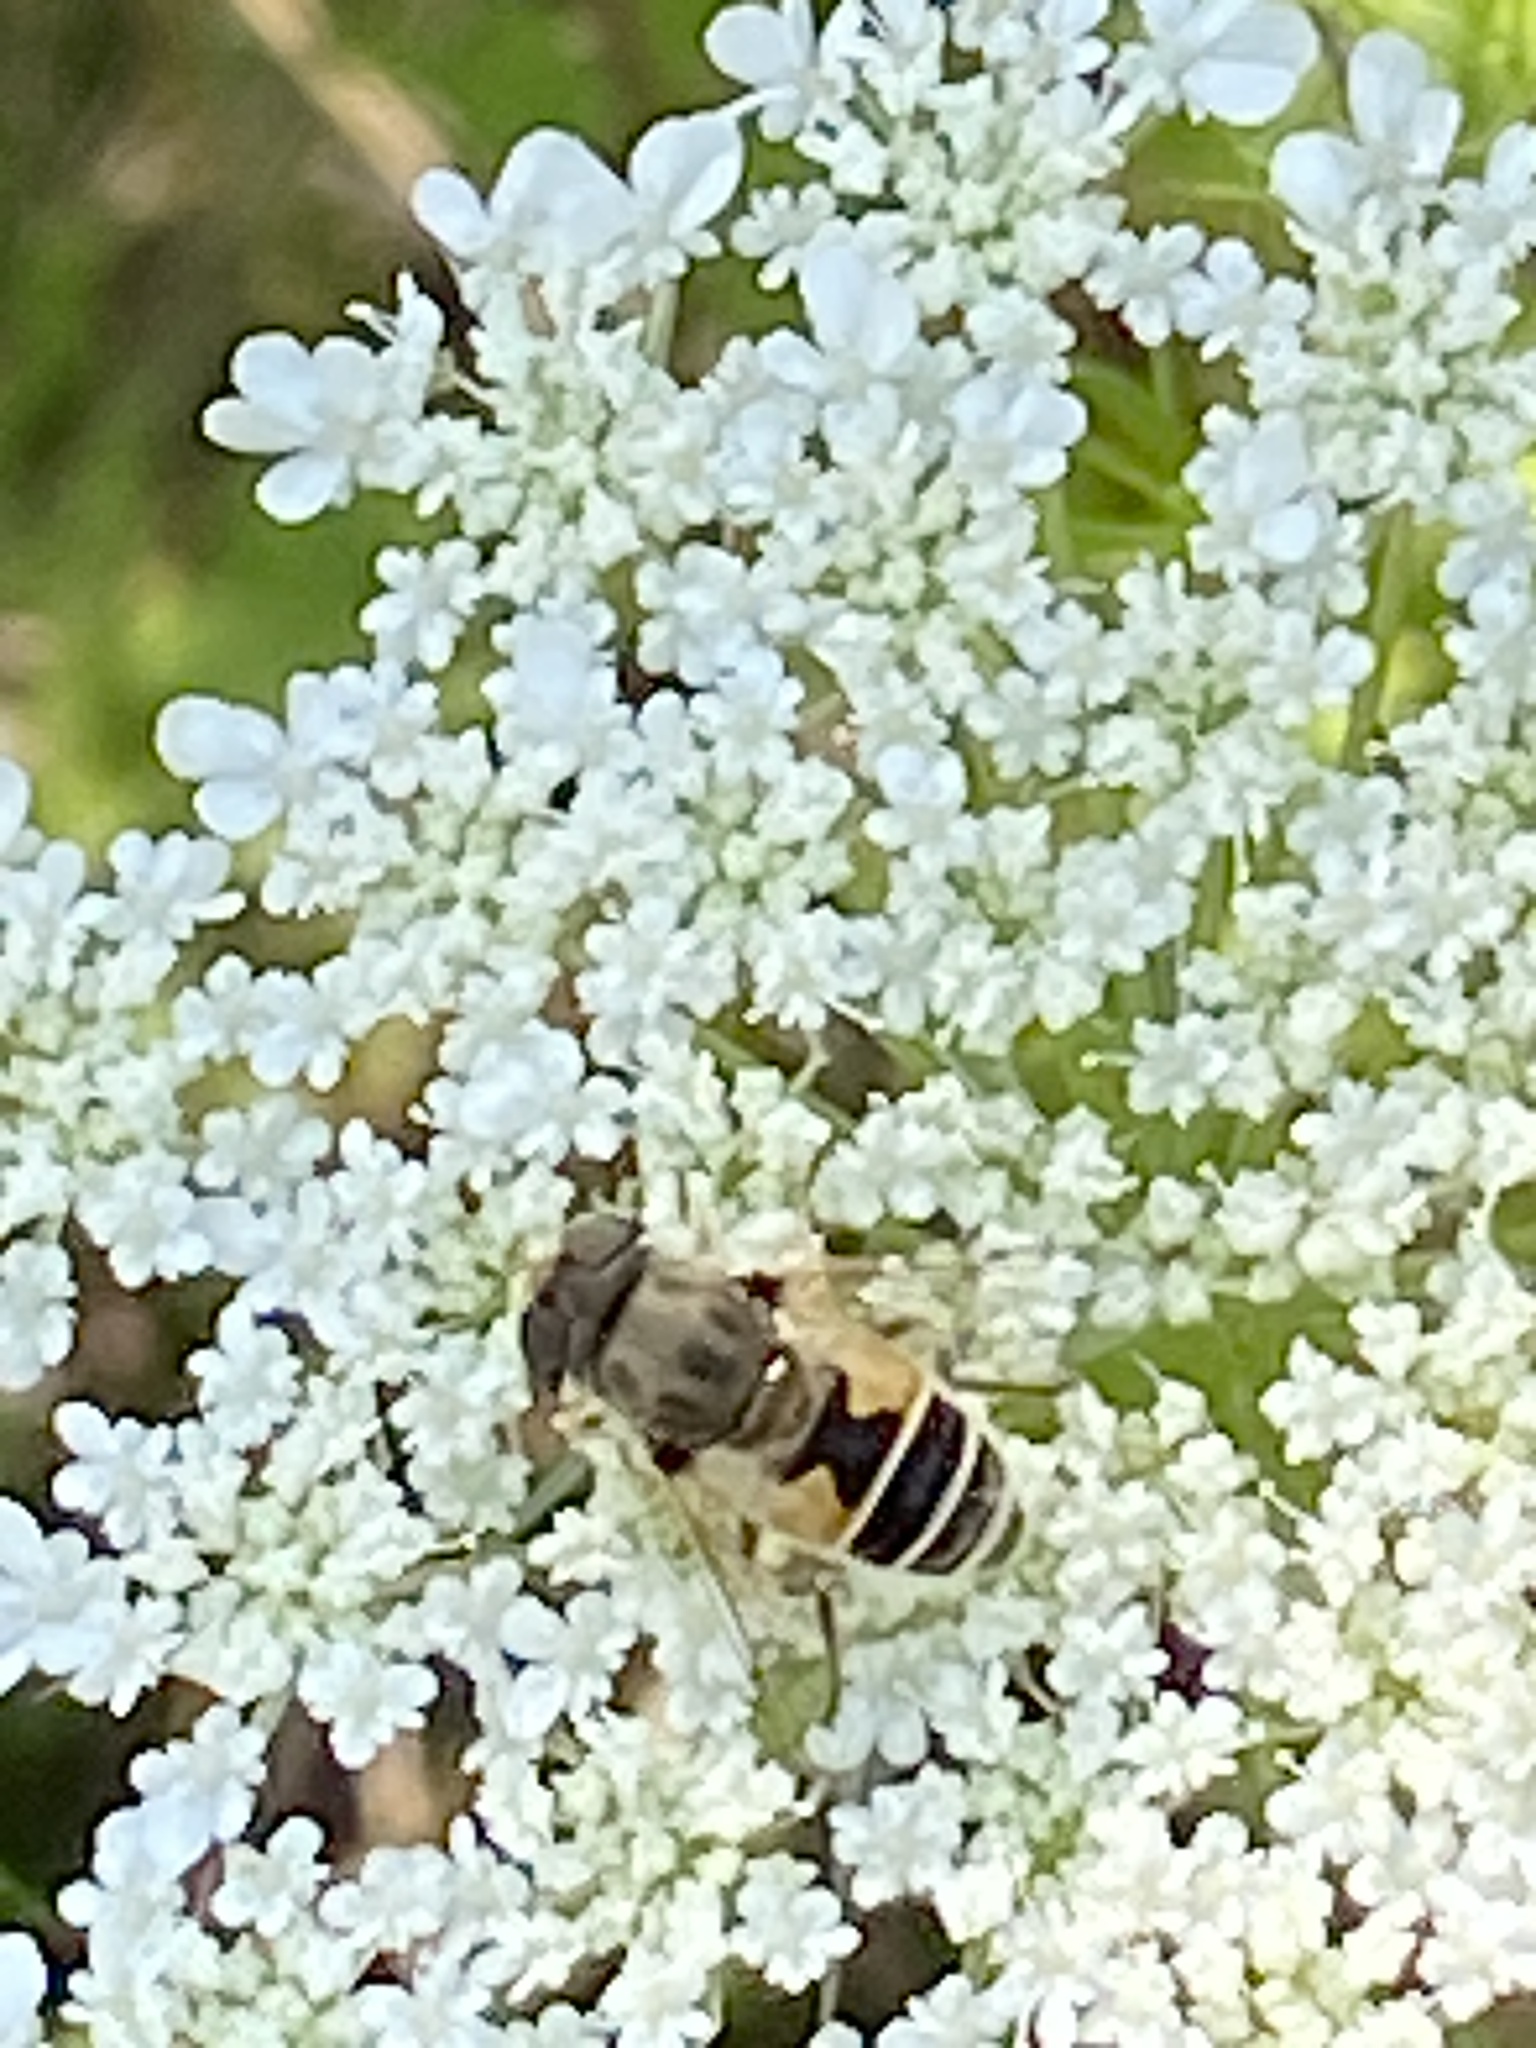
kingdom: Animalia
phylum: Arthropoda
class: Insecta
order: Diptera
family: Syrphidae
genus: Eristalis
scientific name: Eristalis arbustorum
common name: Hover fly
